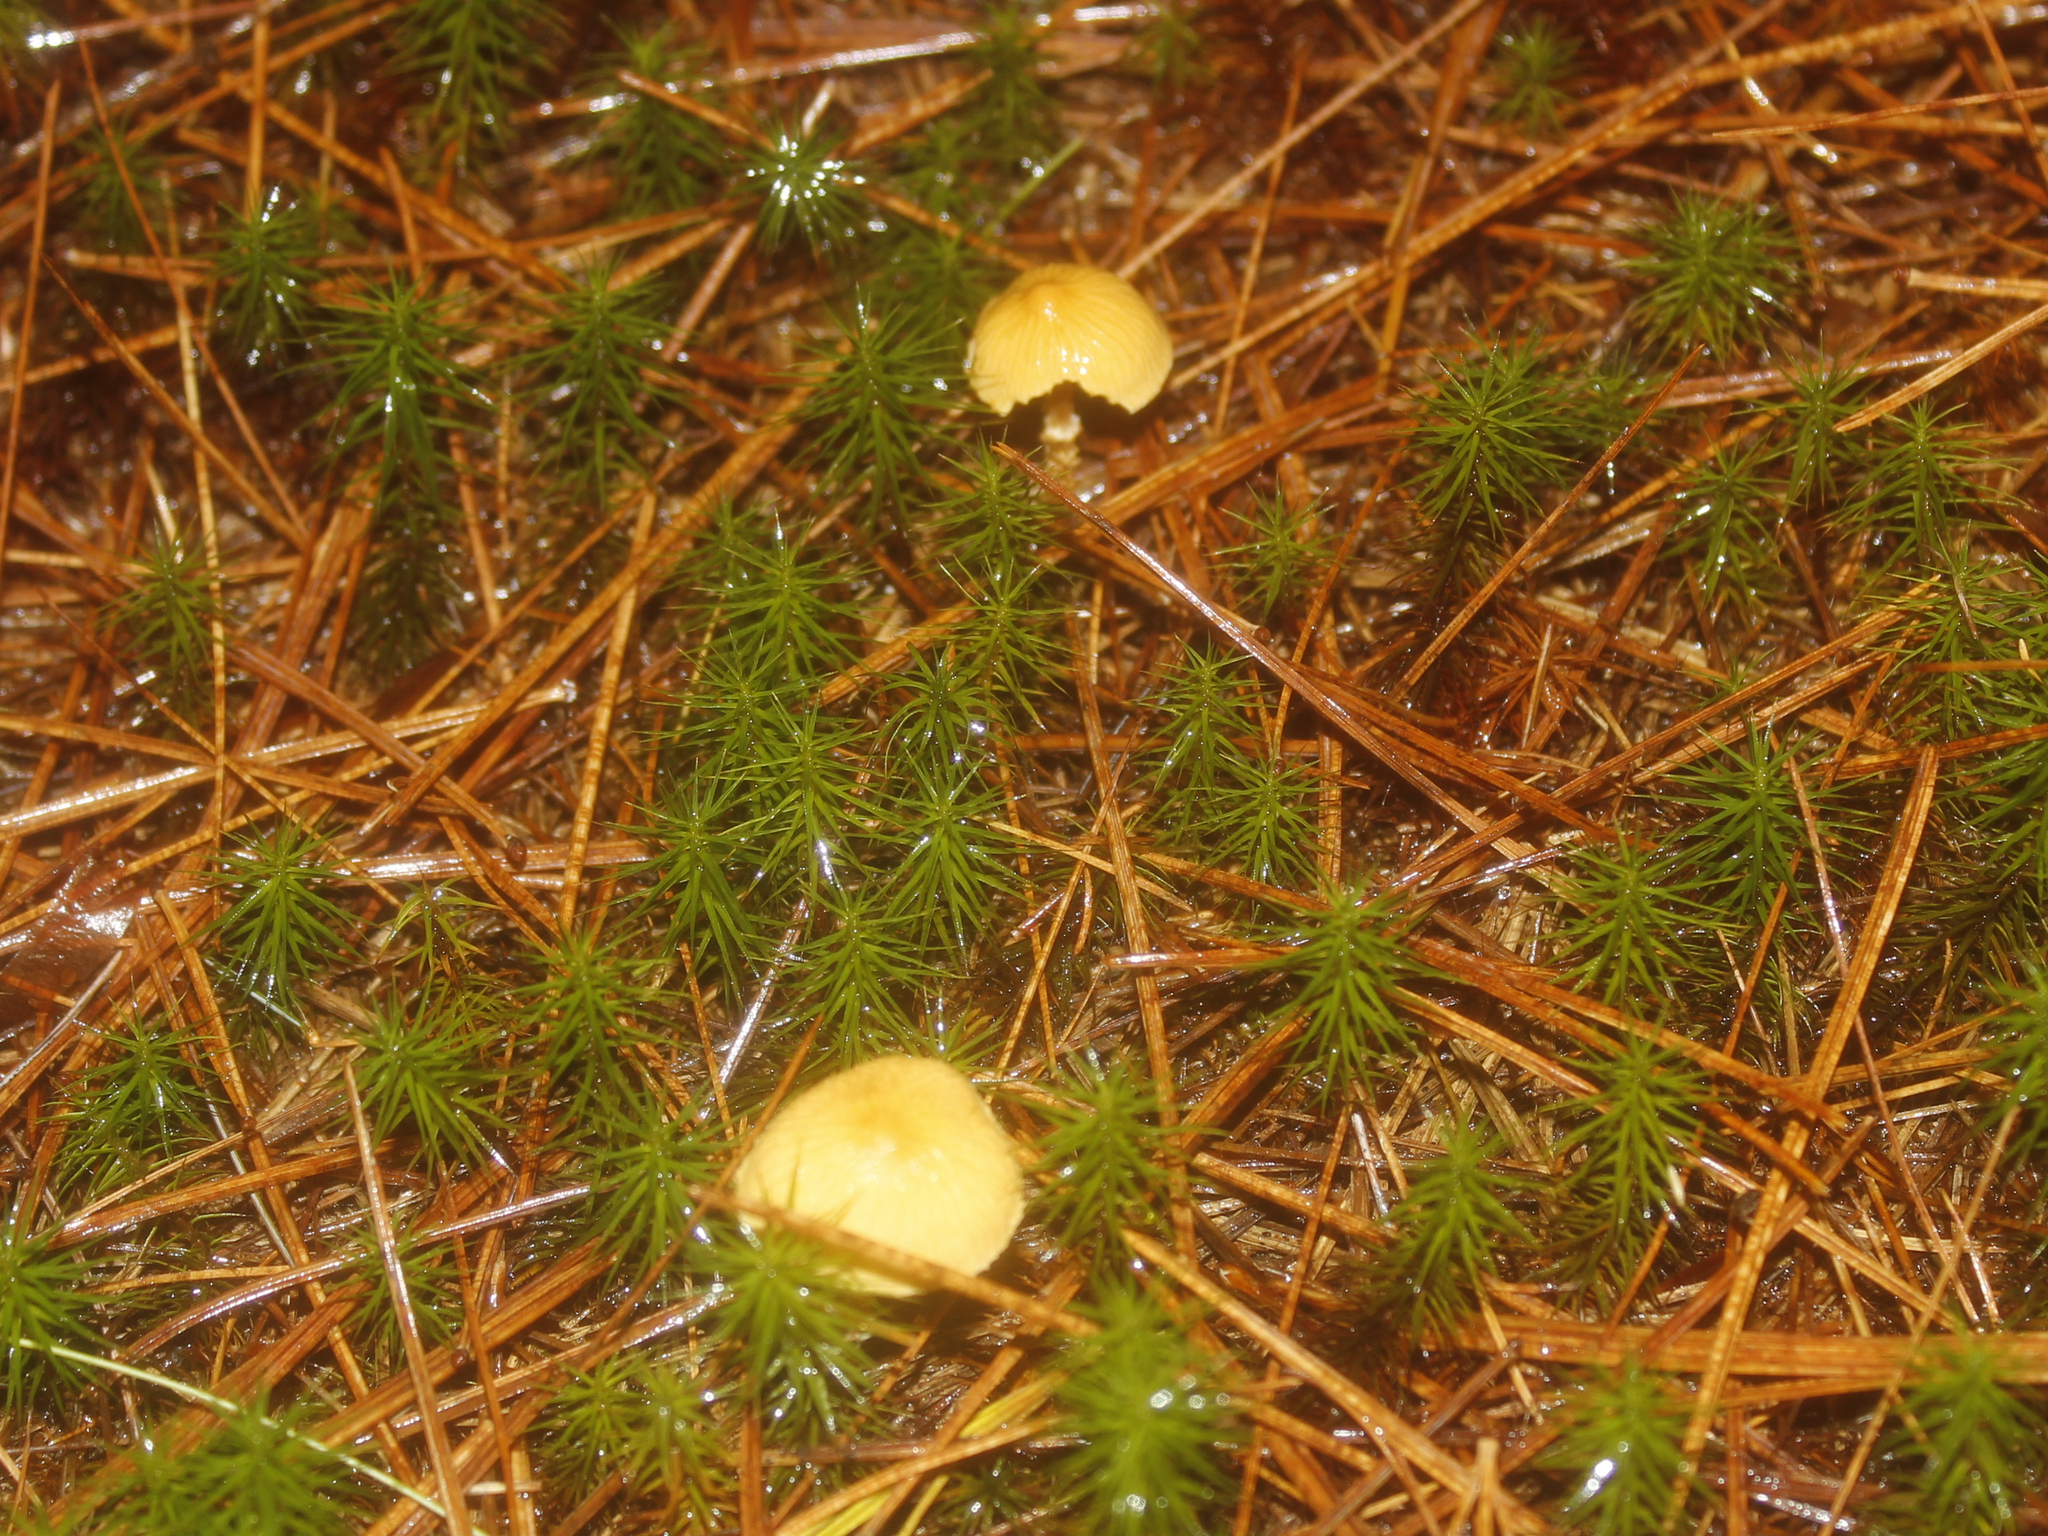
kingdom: Fungi
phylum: Basidiomycota
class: Agaricomycetes
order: Agaricales
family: Tricholomataceae
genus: Cystoderma
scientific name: Cystoderma amianthinum
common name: Earthy powdercap
